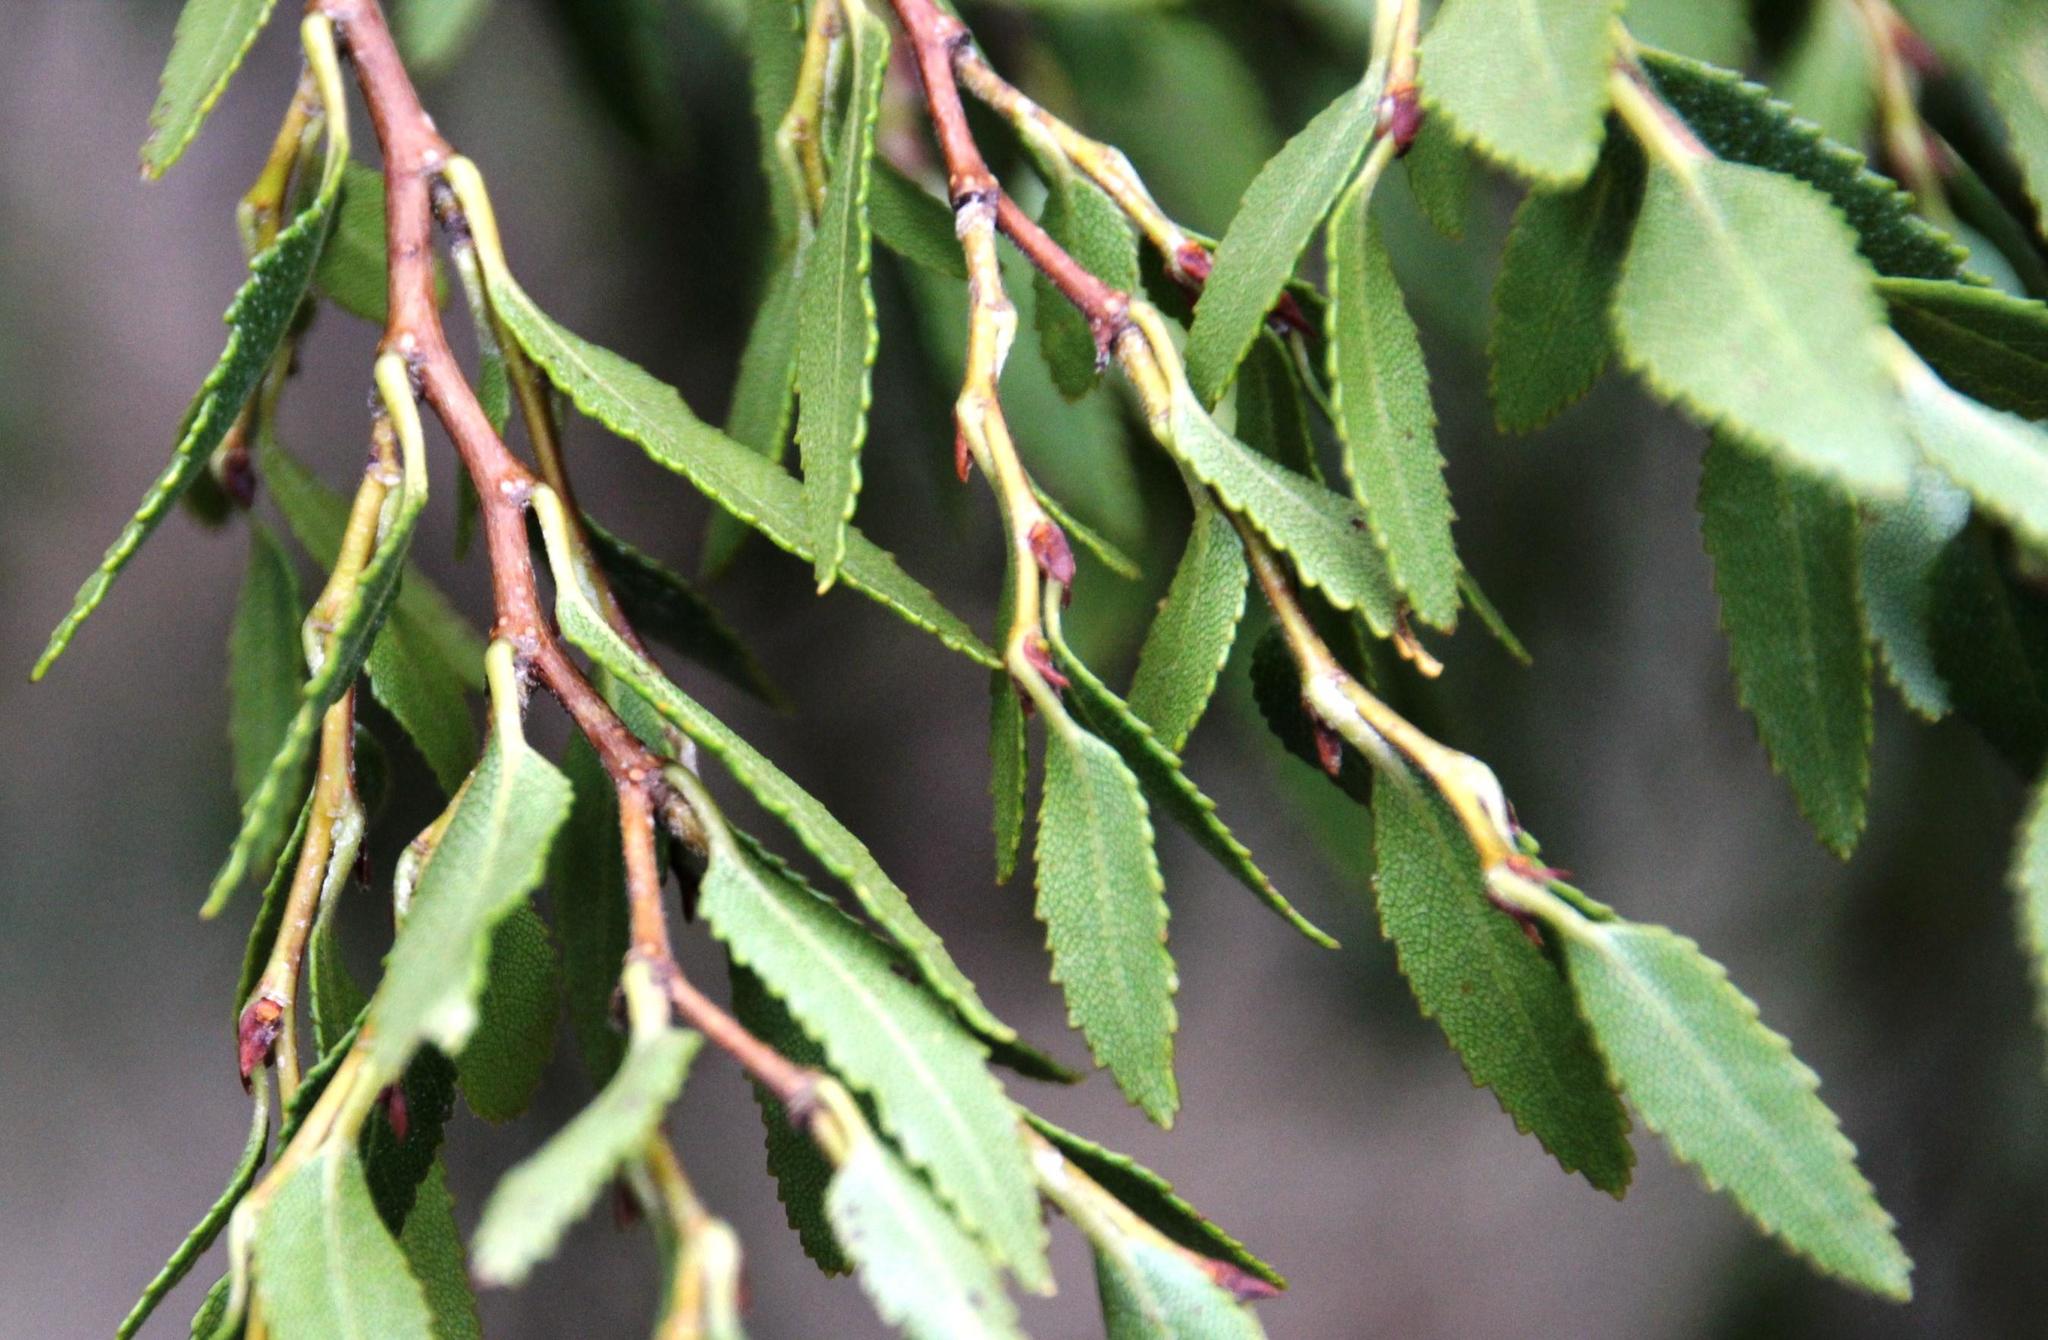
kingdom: Plantae
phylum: Tracheophyta
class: Magnoliopsida
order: Fagales
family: Nothofagaceae
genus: Nothofagus
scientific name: Nothofagus dombeyi
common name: Coigue
